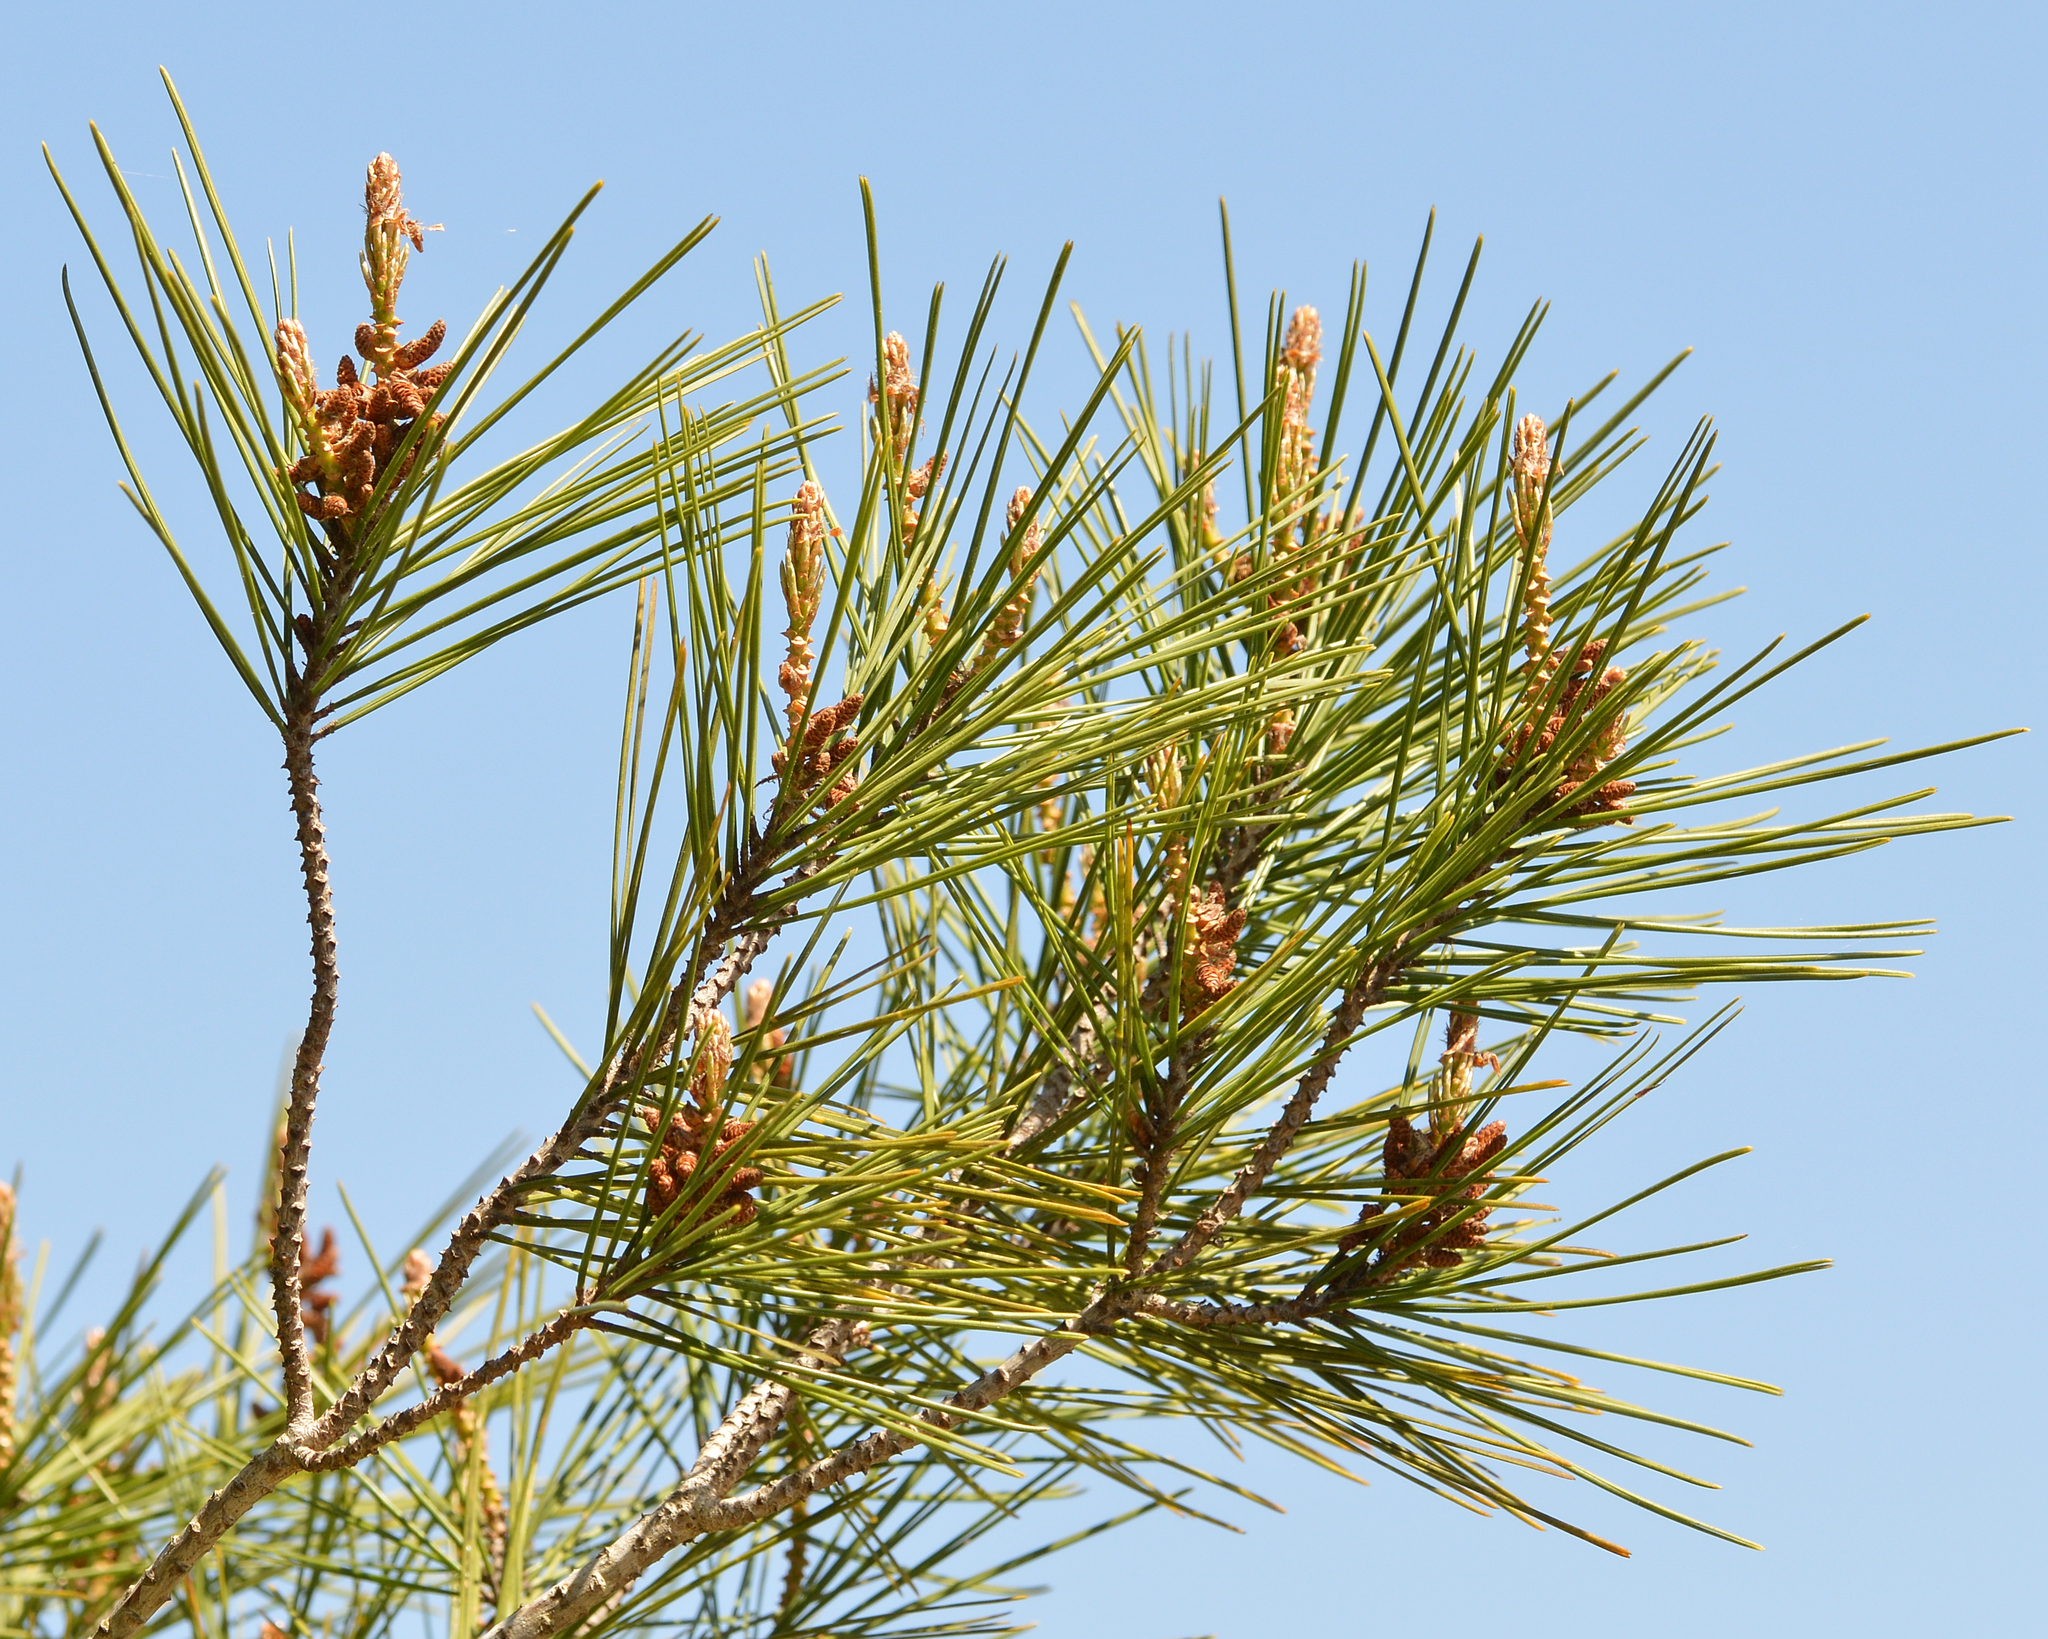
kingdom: Plantae
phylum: Tracheophyta
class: Pinopsida
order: Pinales
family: Pinaceae
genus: Pinus
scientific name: Pinus halepensis
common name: Aleppo pine
